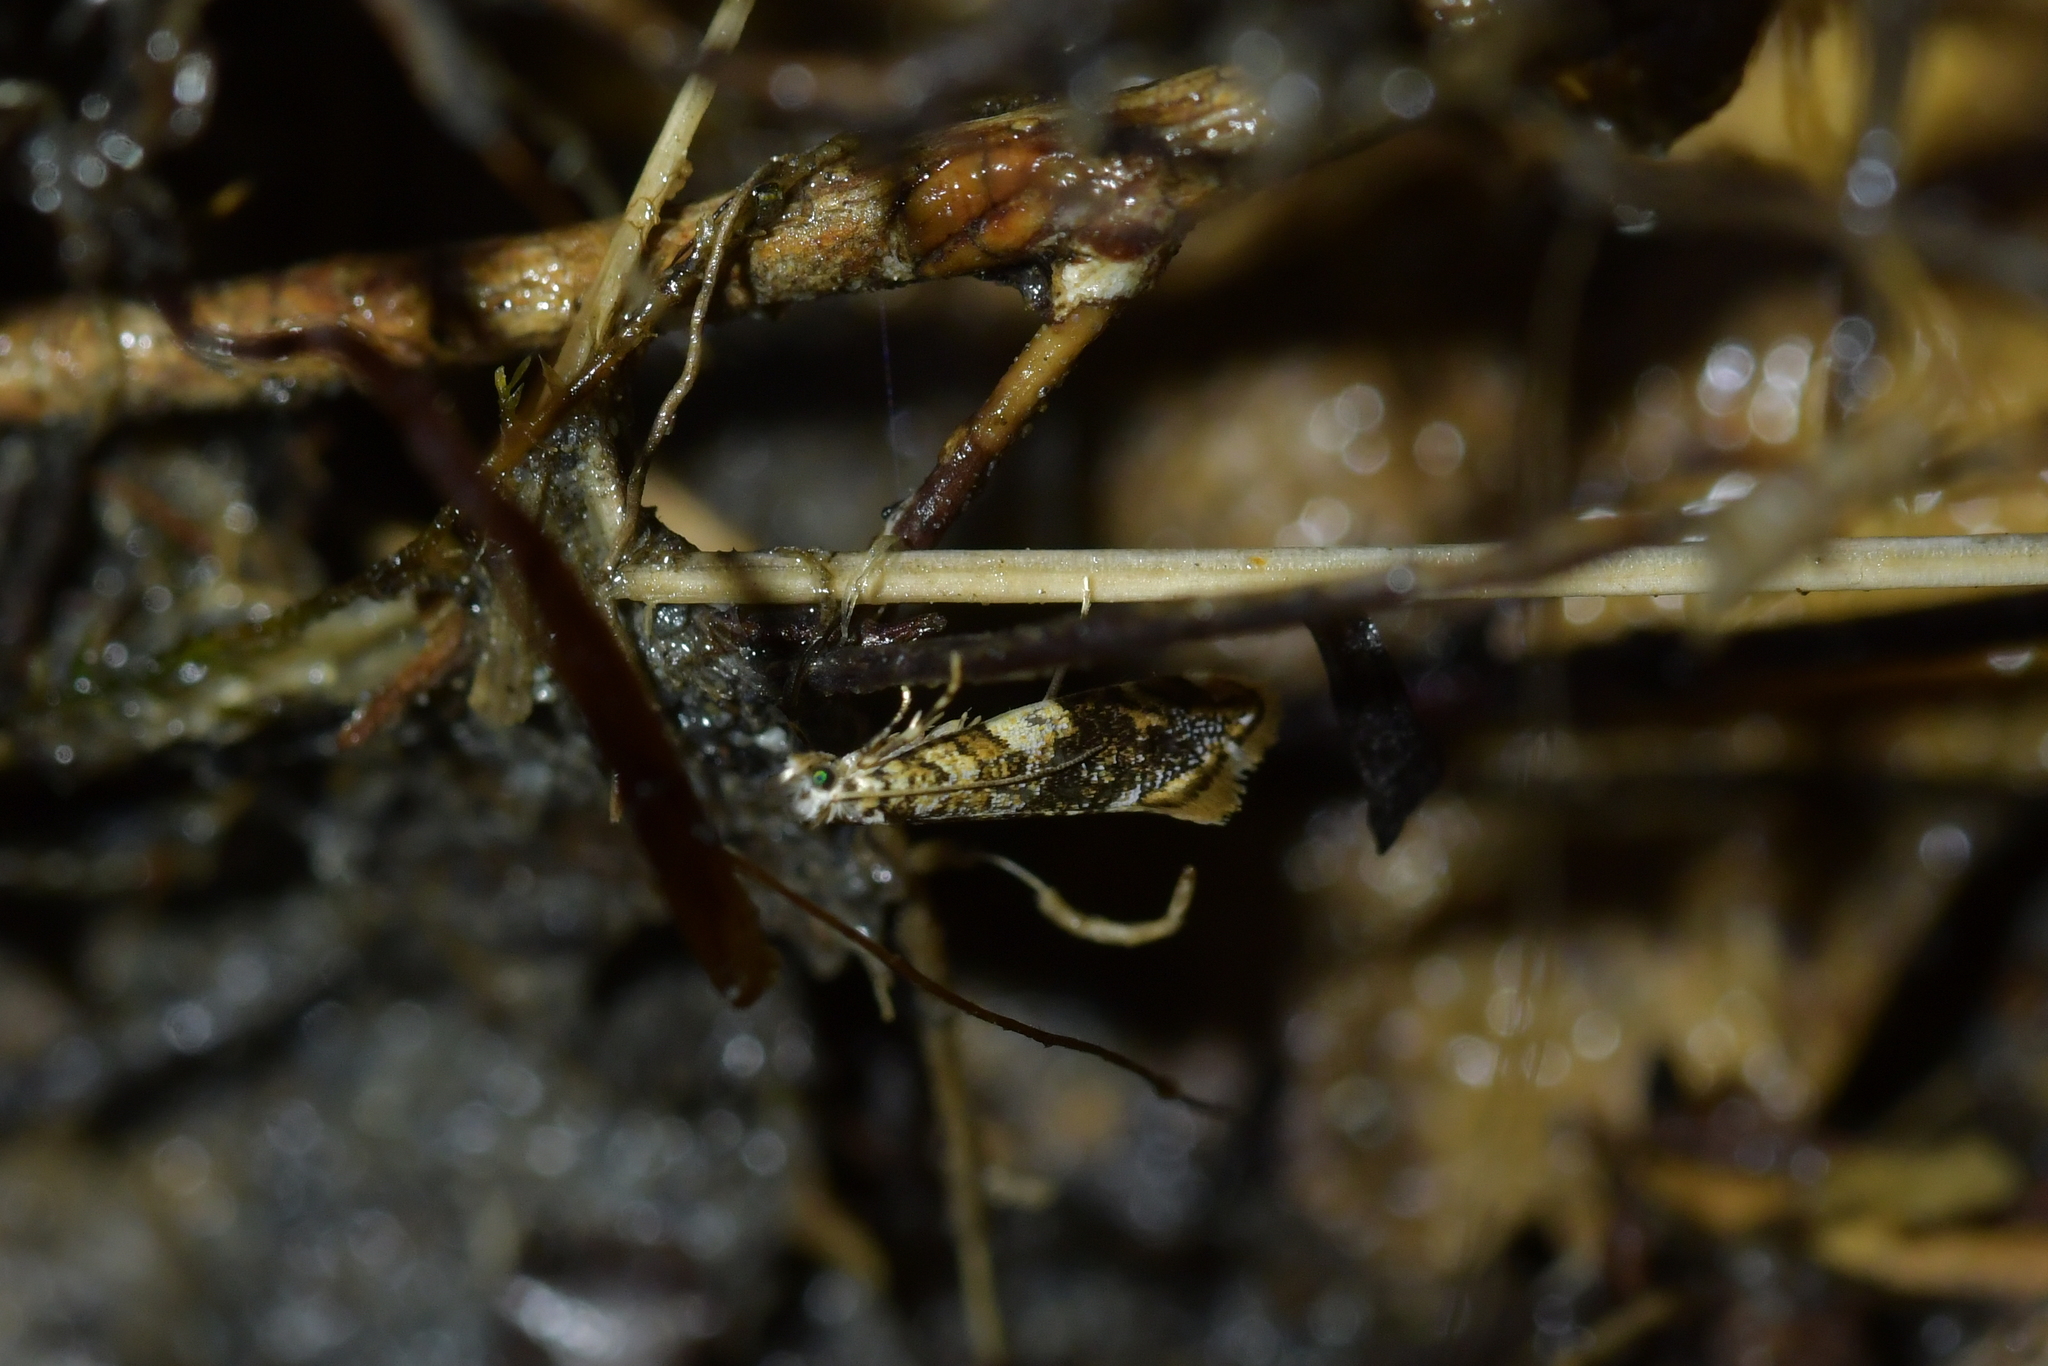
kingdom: Animalia
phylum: Arthropoda
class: Insecta
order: Lepidoptera
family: Tineidae
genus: Eschatotypa
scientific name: Eschatotypa derogatella
